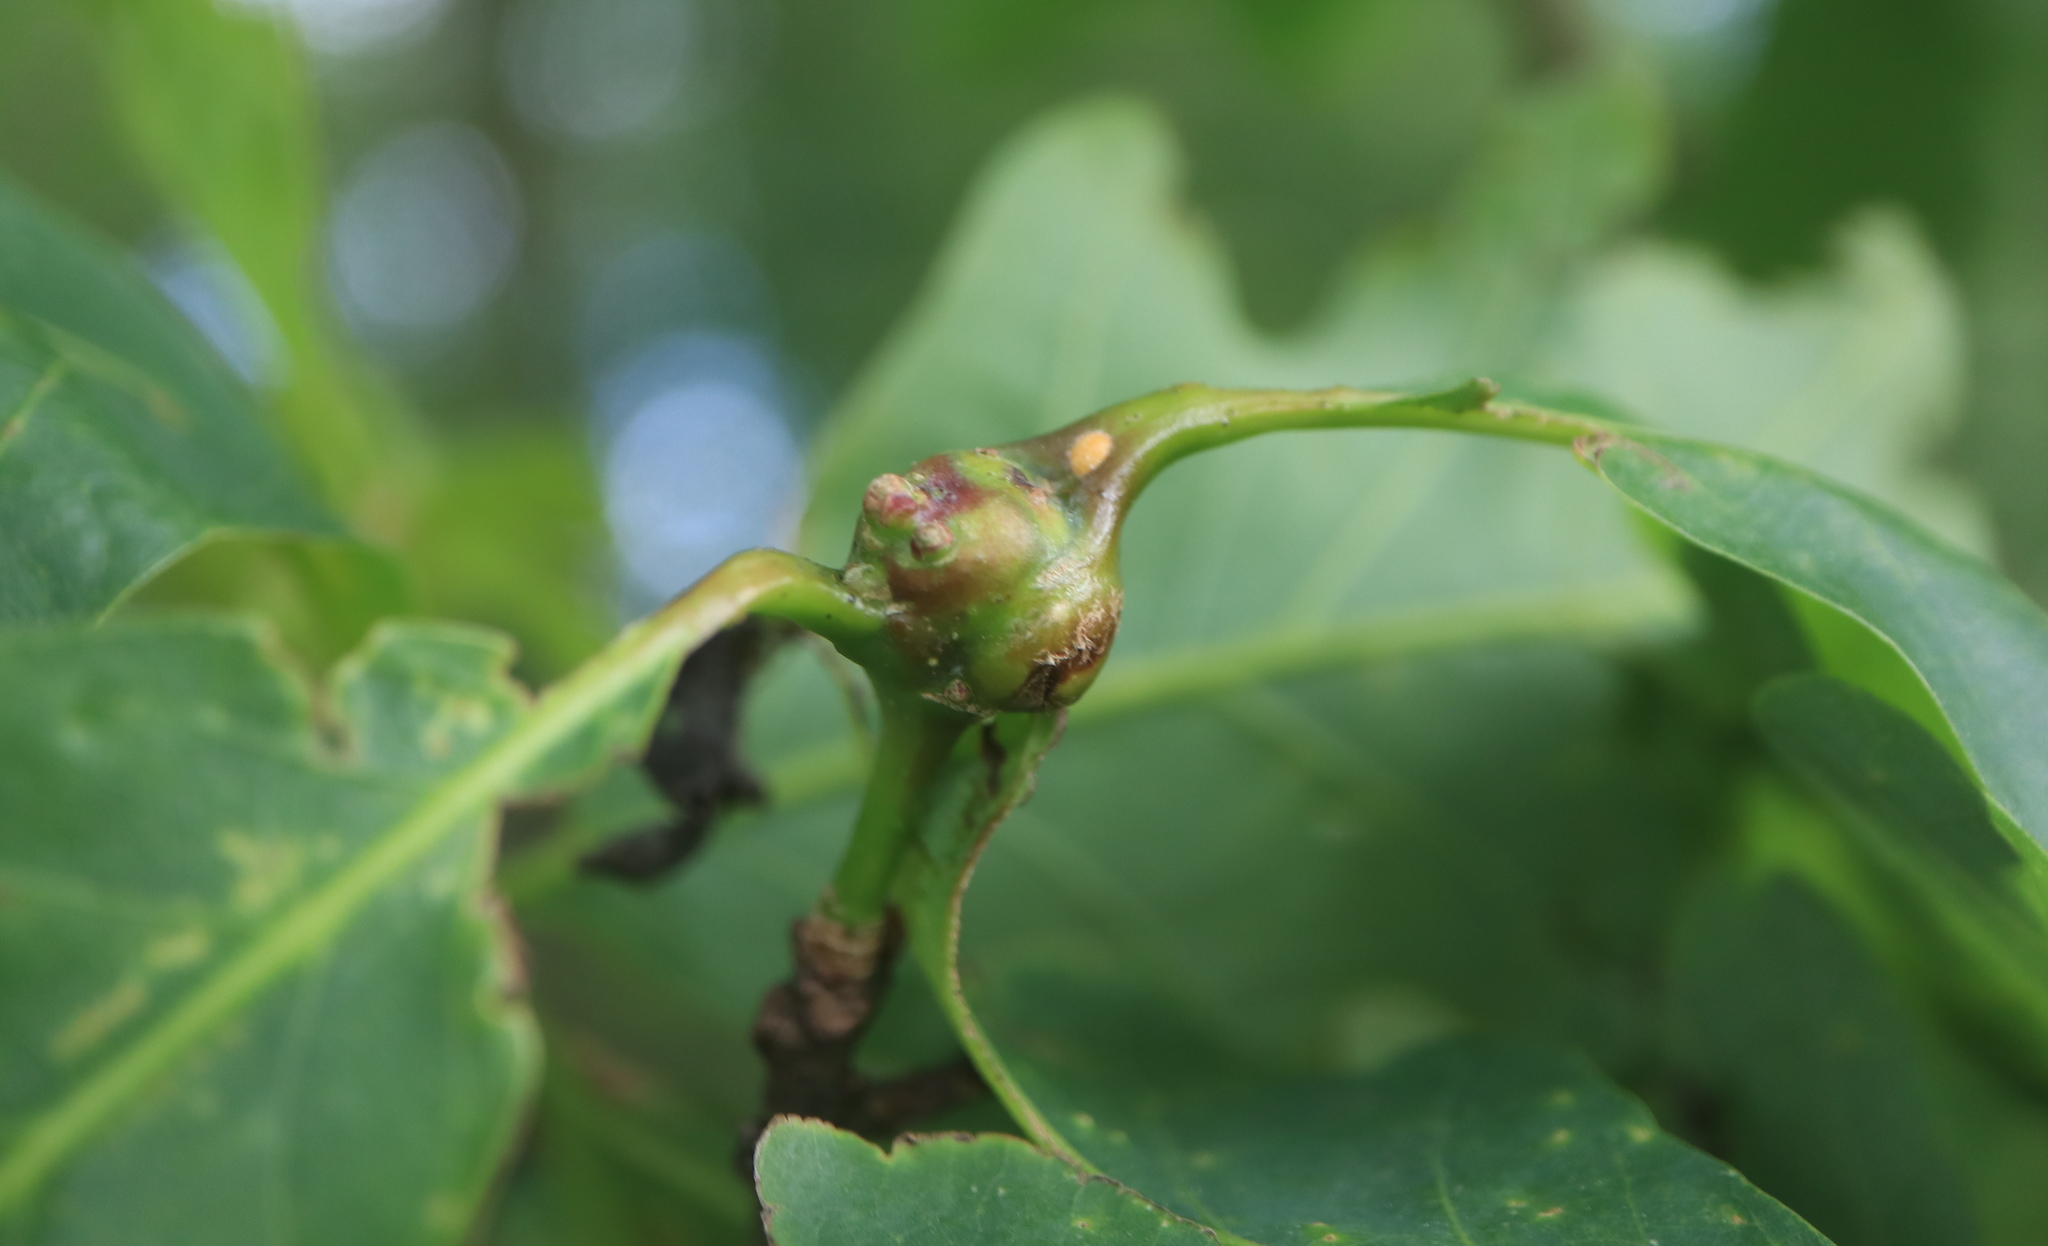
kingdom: Animalia
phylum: Arthropoda
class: Insecta
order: Hymenoptera
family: Cynipidae
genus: Callirhytis
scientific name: Callirhytis clavula
